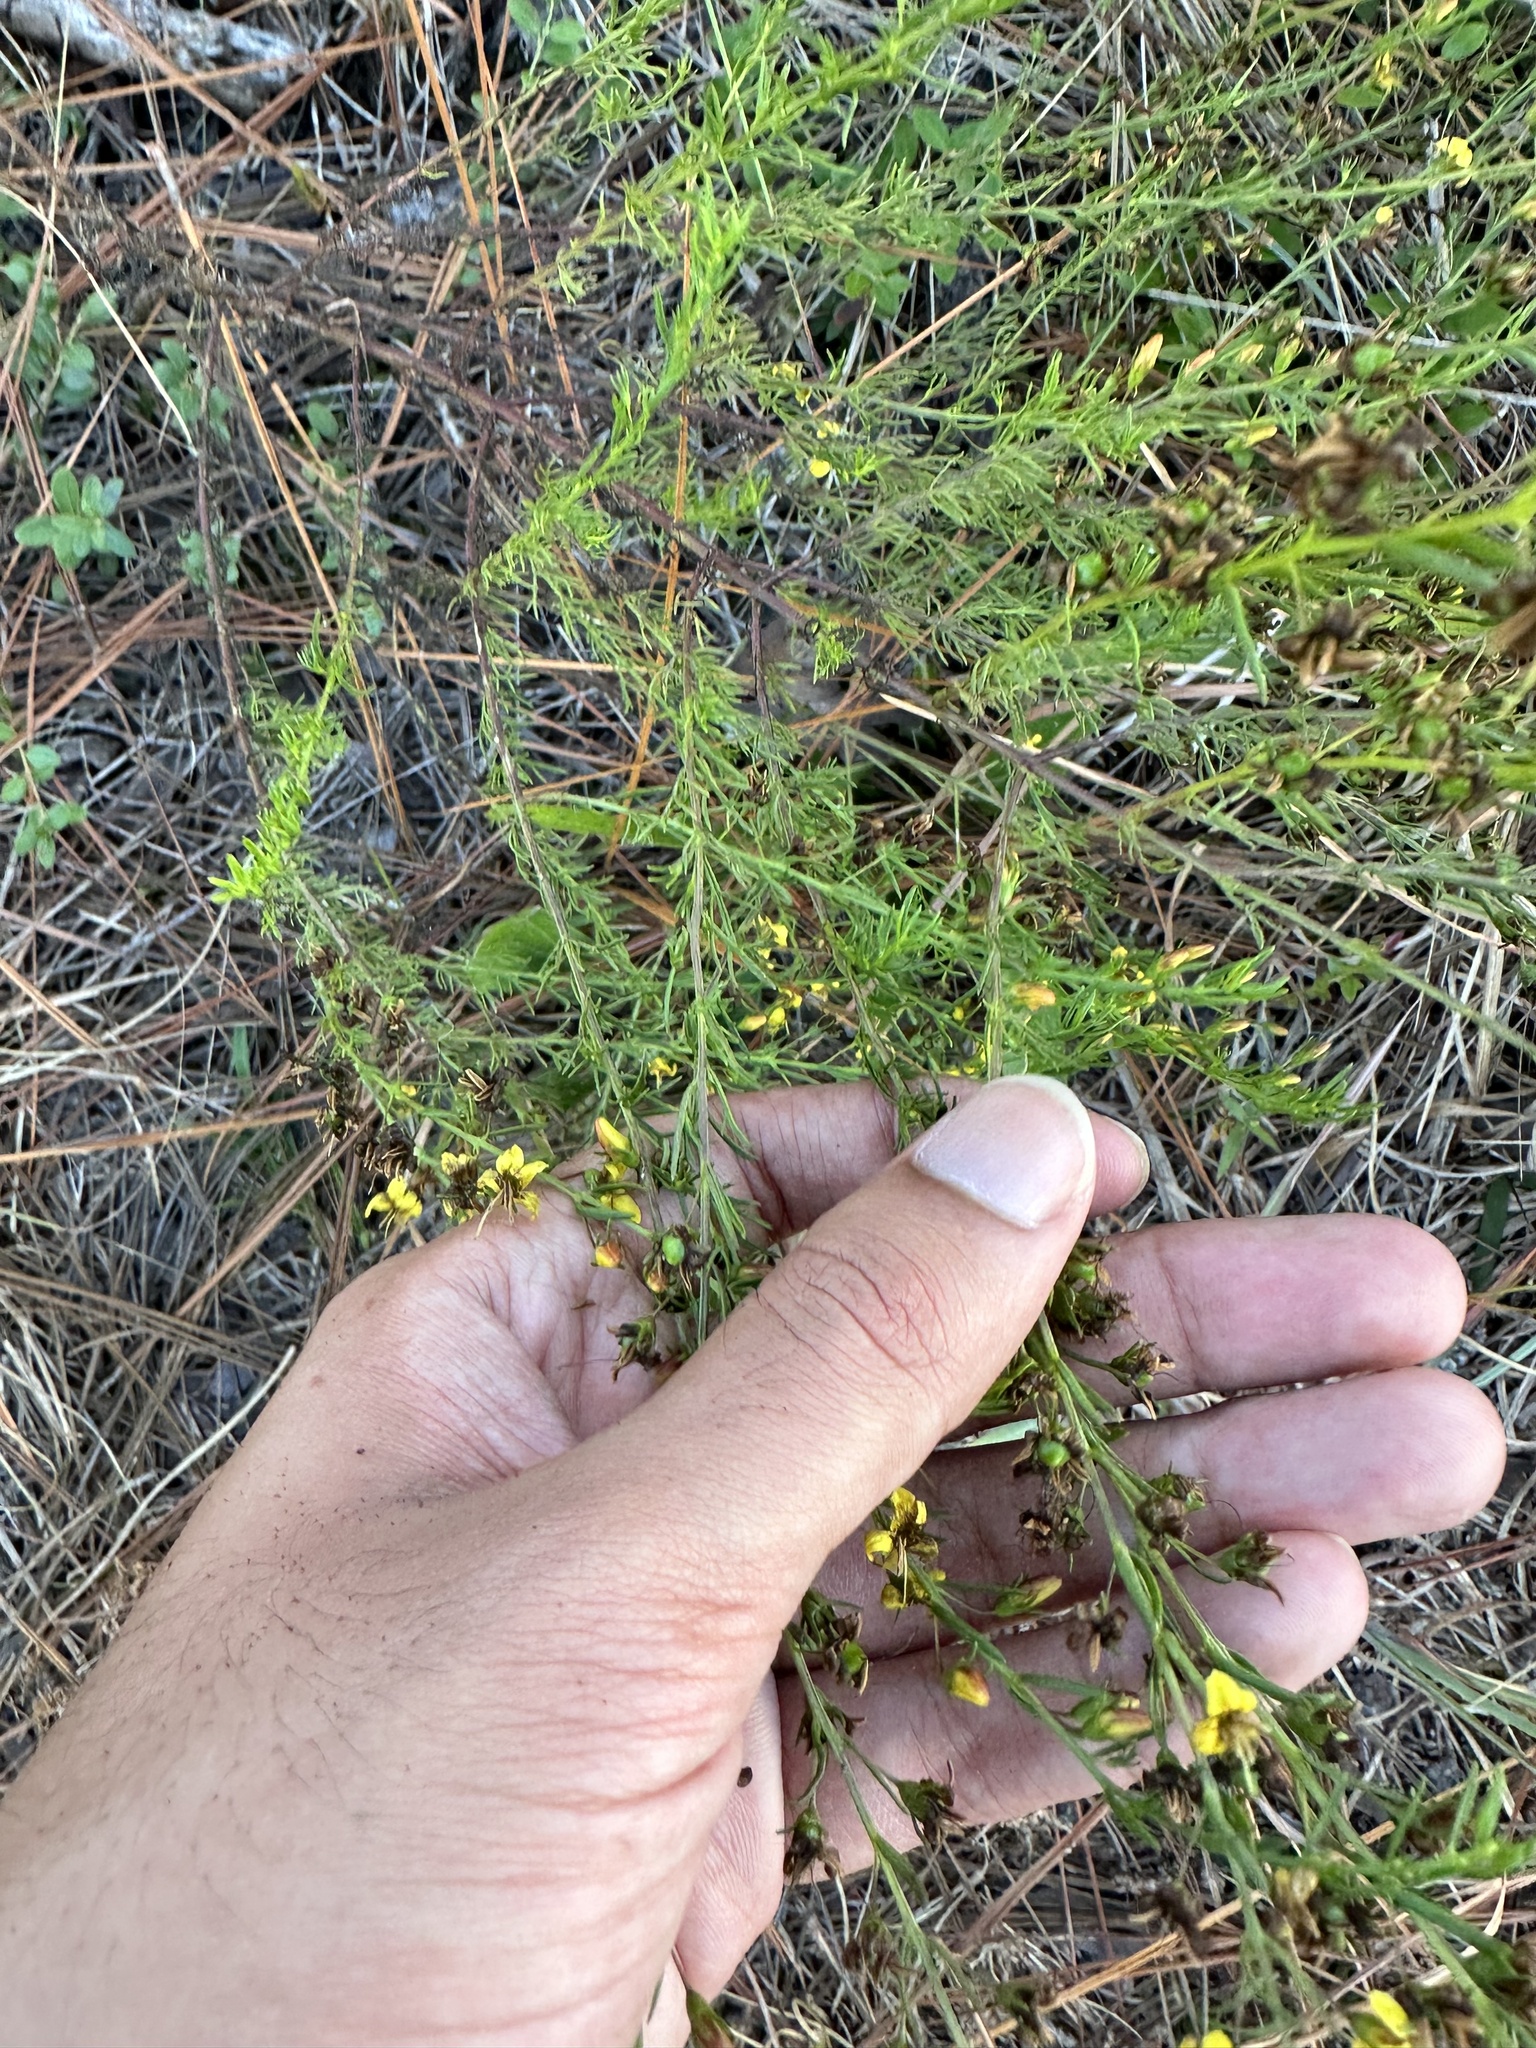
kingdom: Plantae
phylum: Tracheophyta
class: Magnoliopsida
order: Lamiales
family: Orobanchaceae
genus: Seymeria
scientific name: Seymeria cassioides
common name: Yaupon black-senna
